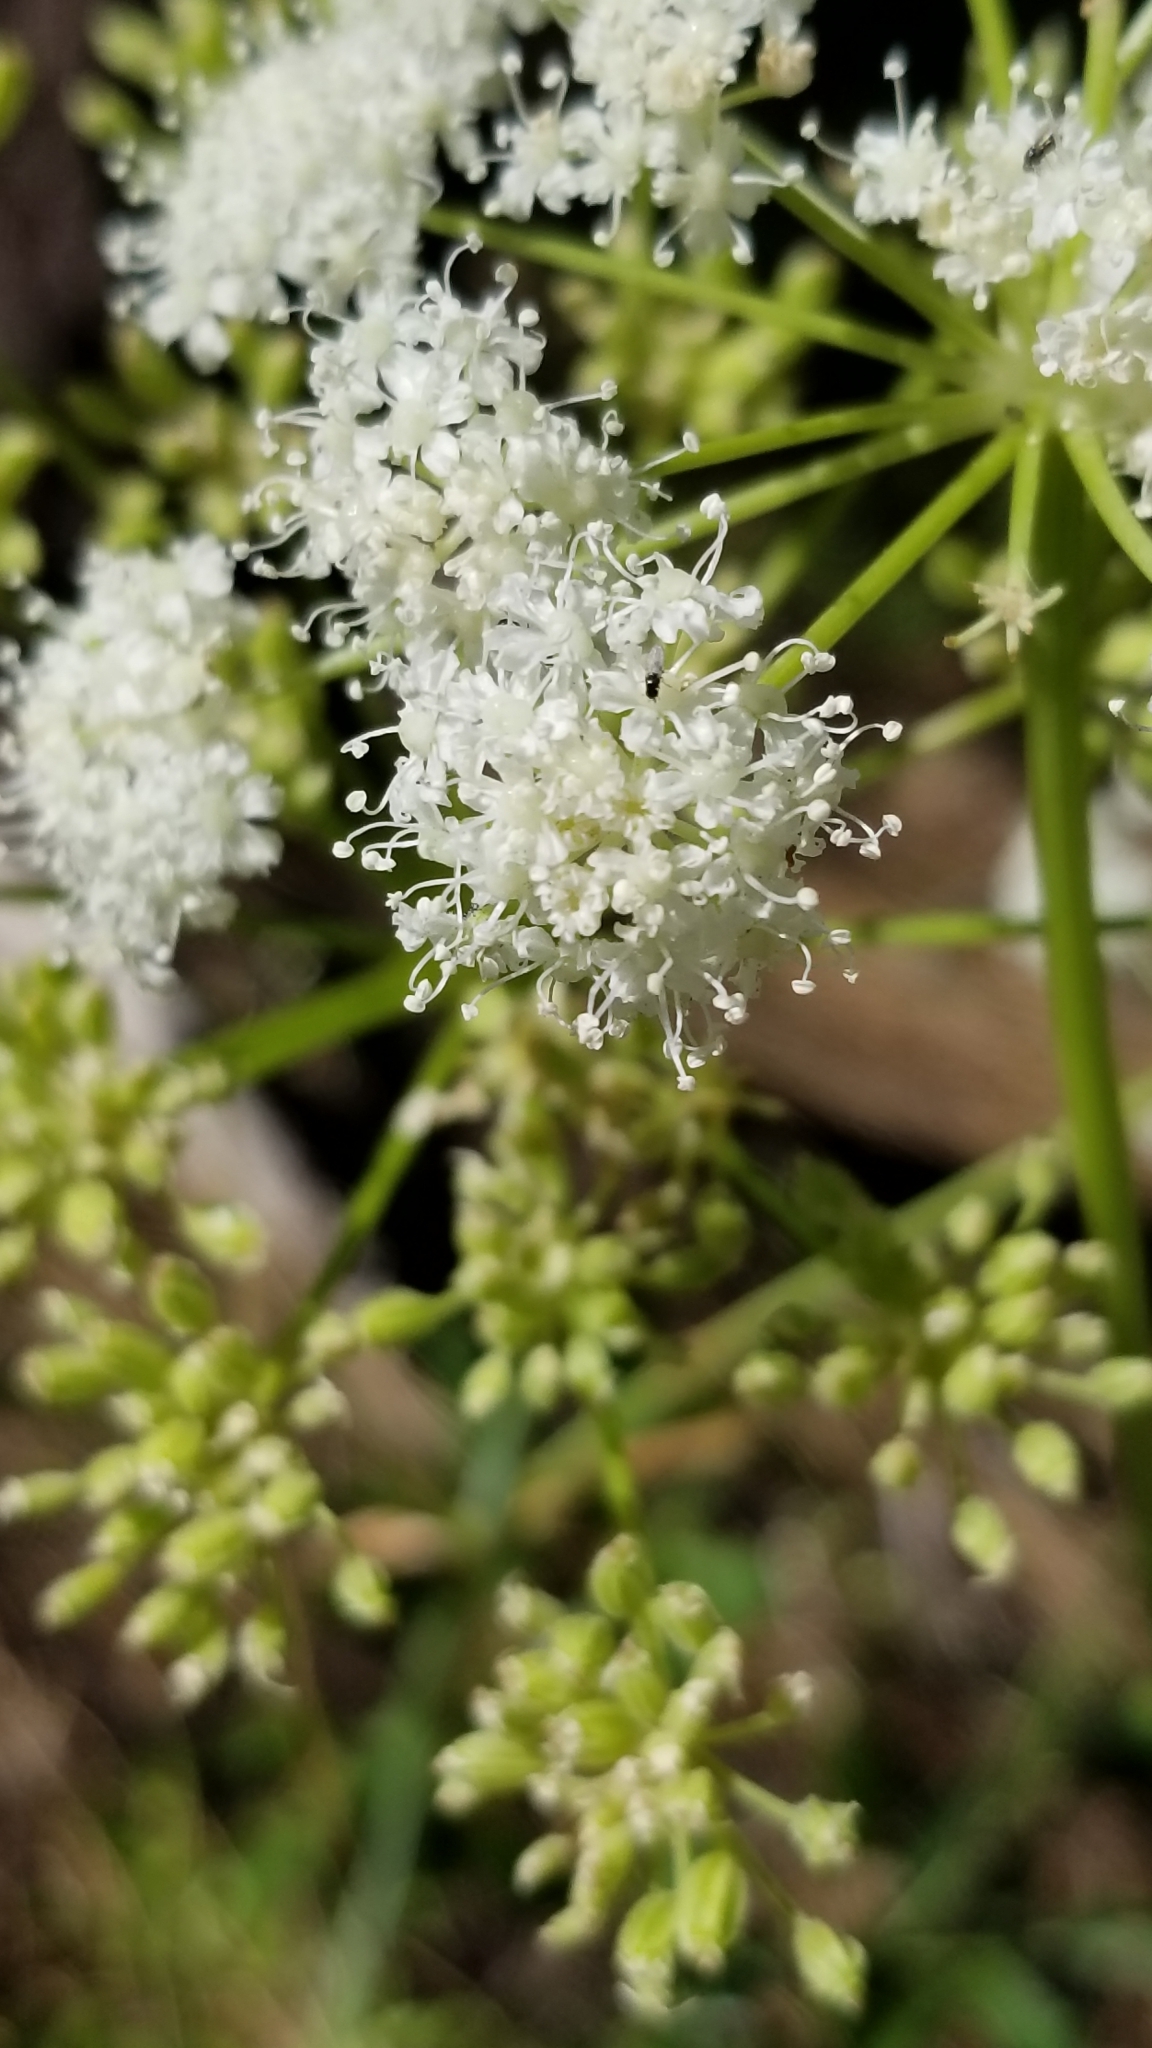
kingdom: Plantae
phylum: Tracheophyta
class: Magnoliopsida
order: Apiales
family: Apiaceae
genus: Ligusticum
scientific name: Ligusticum grayi
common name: Gray's licorice-root
